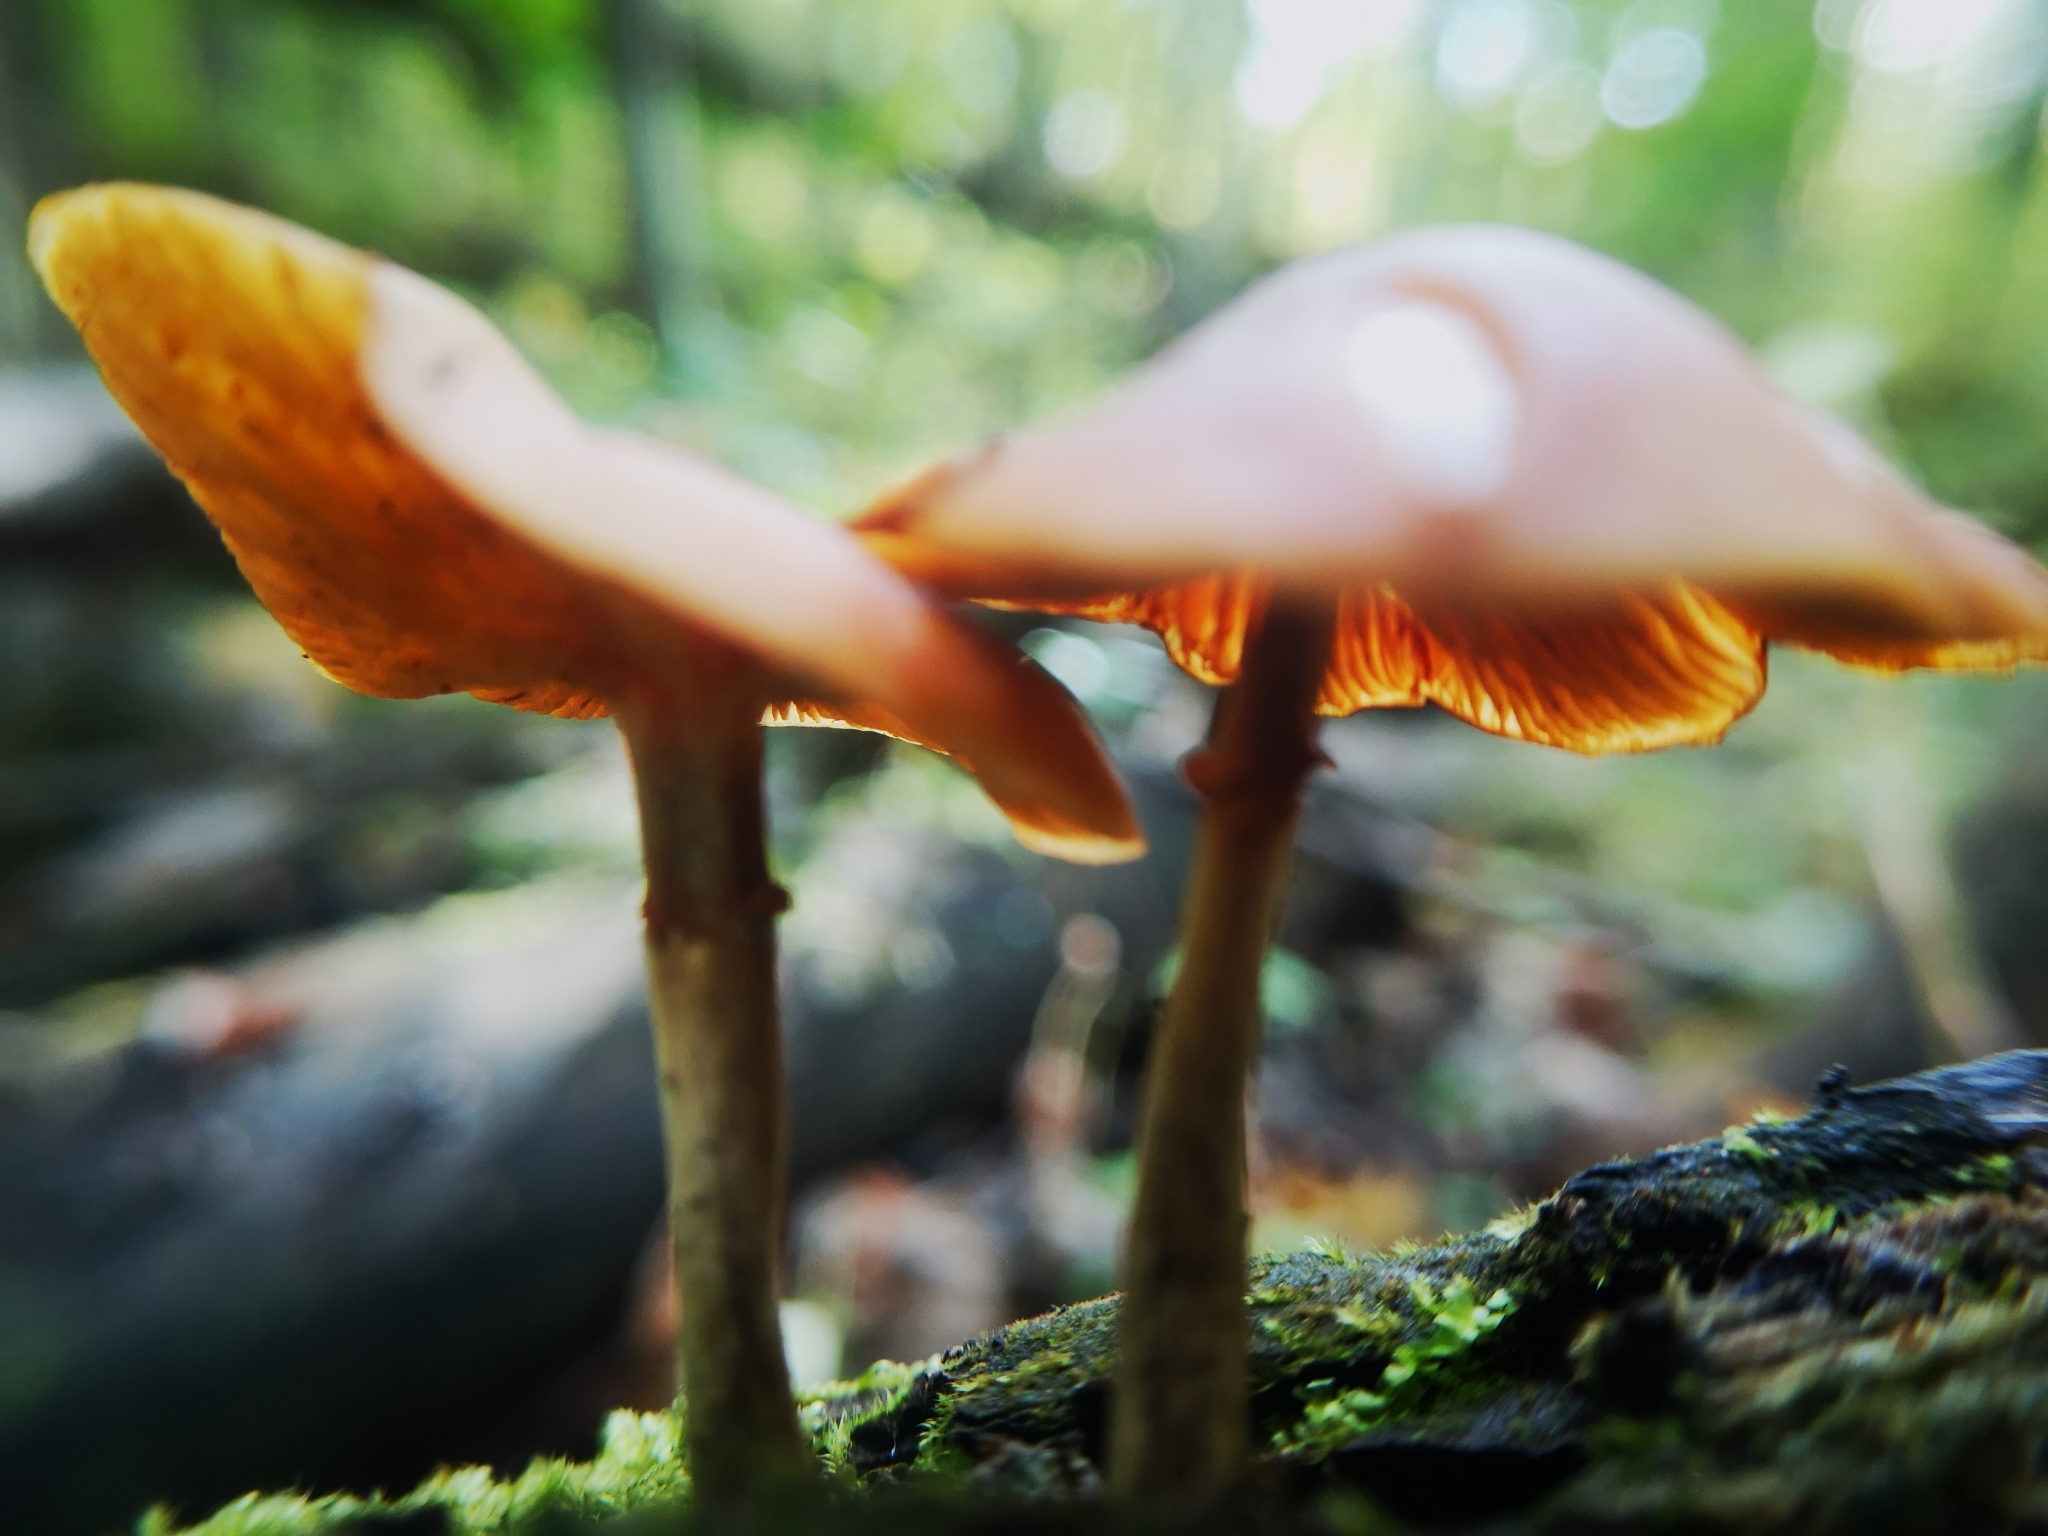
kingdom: Fungi
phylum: Basidiomycota
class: Agaricomycetes
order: Agaricales
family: Hymenogastraceae
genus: Galerina
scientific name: Galerina marginata
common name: Funeral bell
